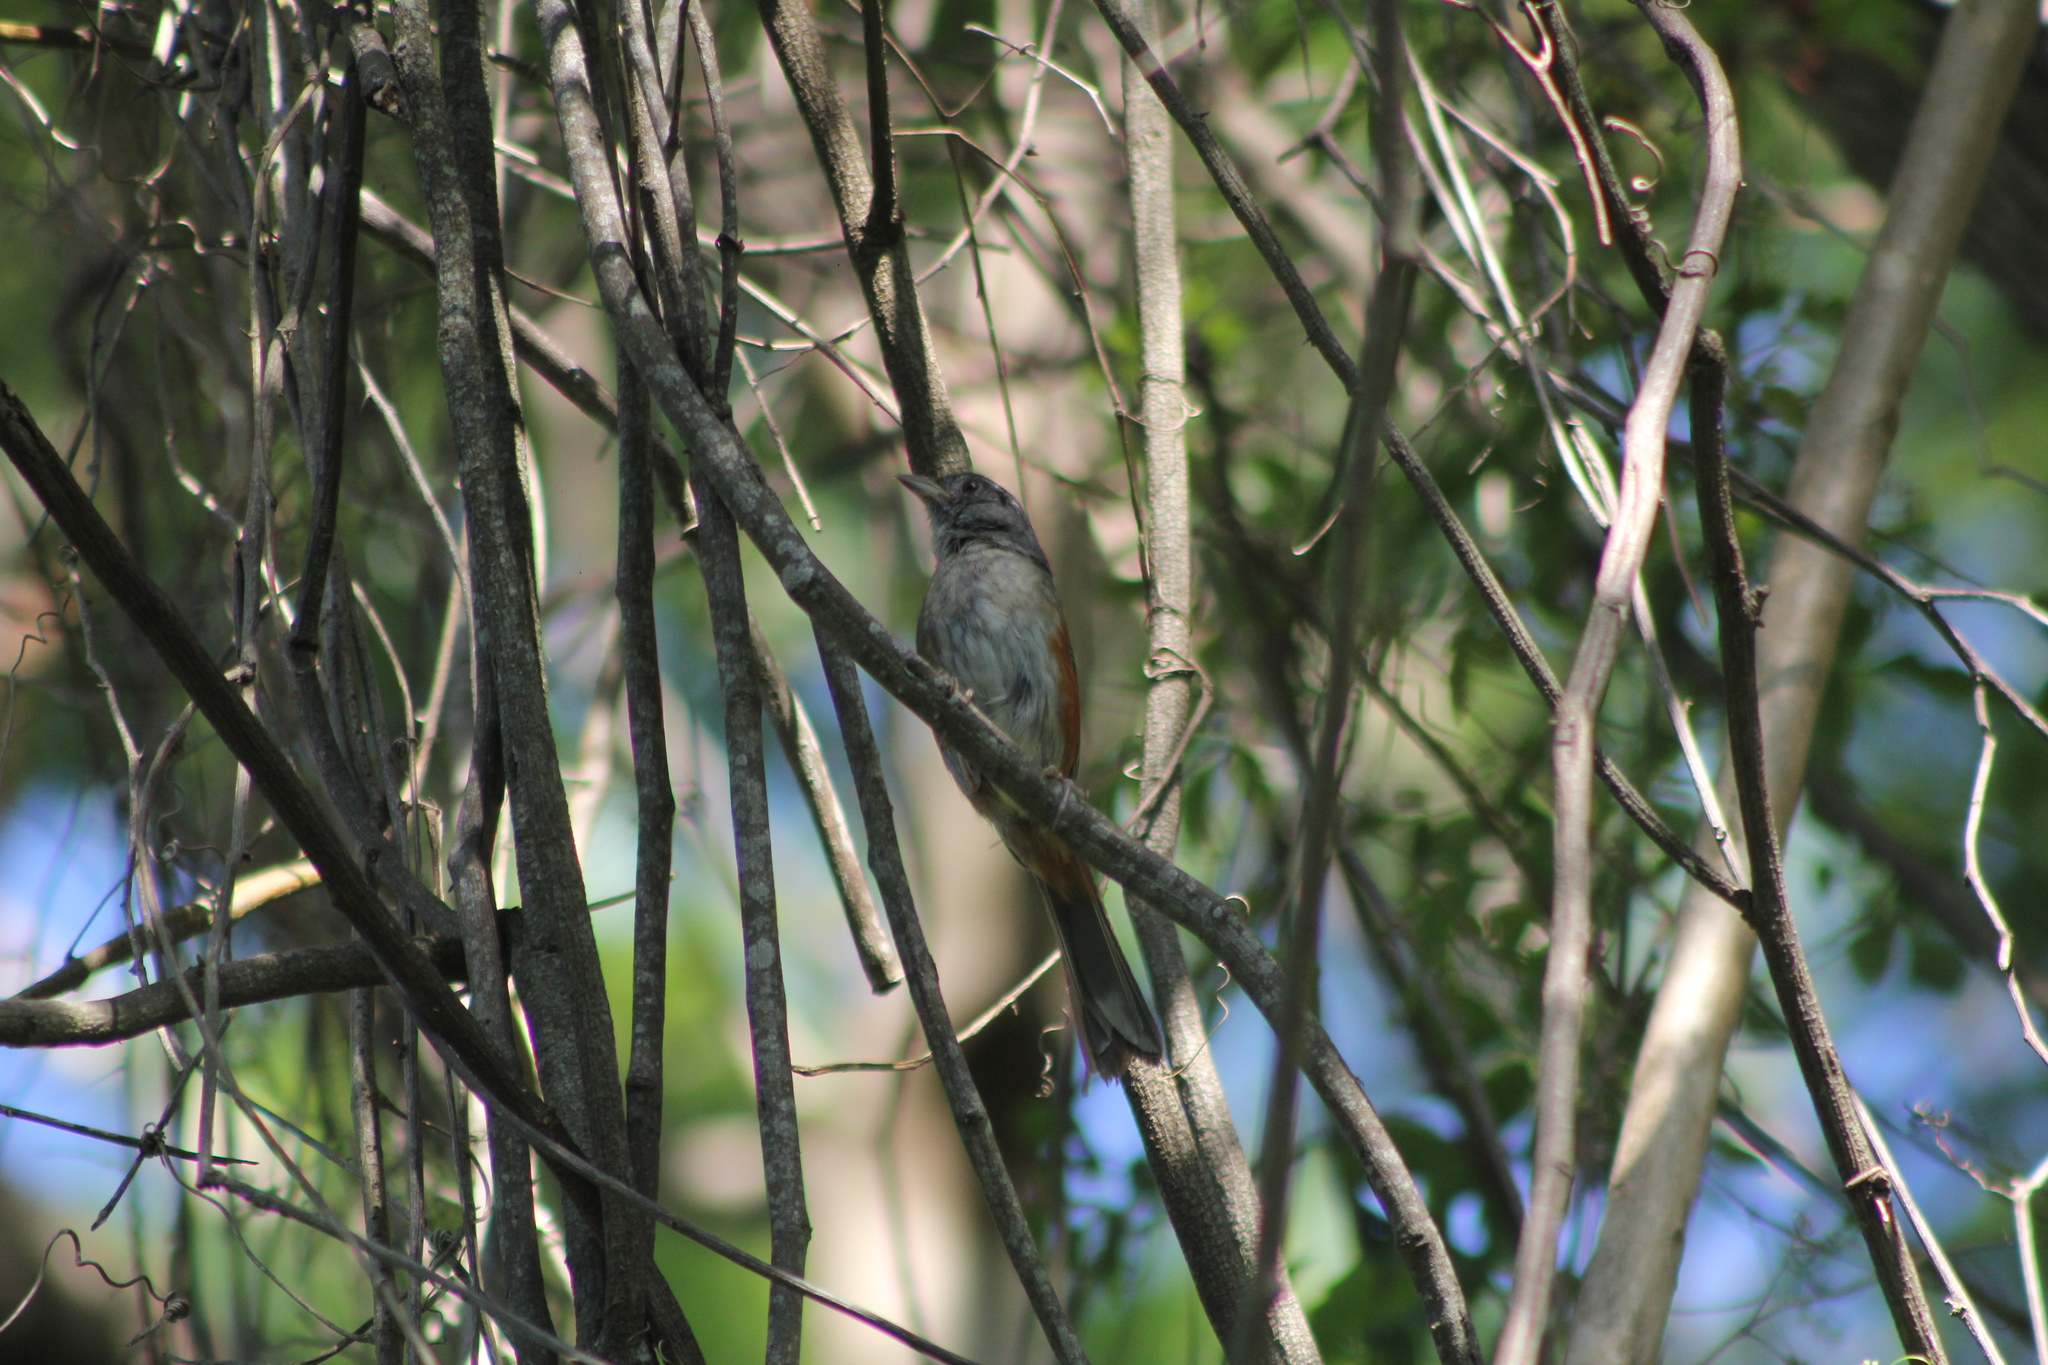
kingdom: Animalia
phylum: Chordata
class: Aves
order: Passeriformes
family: Thraupidae
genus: Microspingus
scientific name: Microspingus cabanisi
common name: Gray-throated warbling-finch
